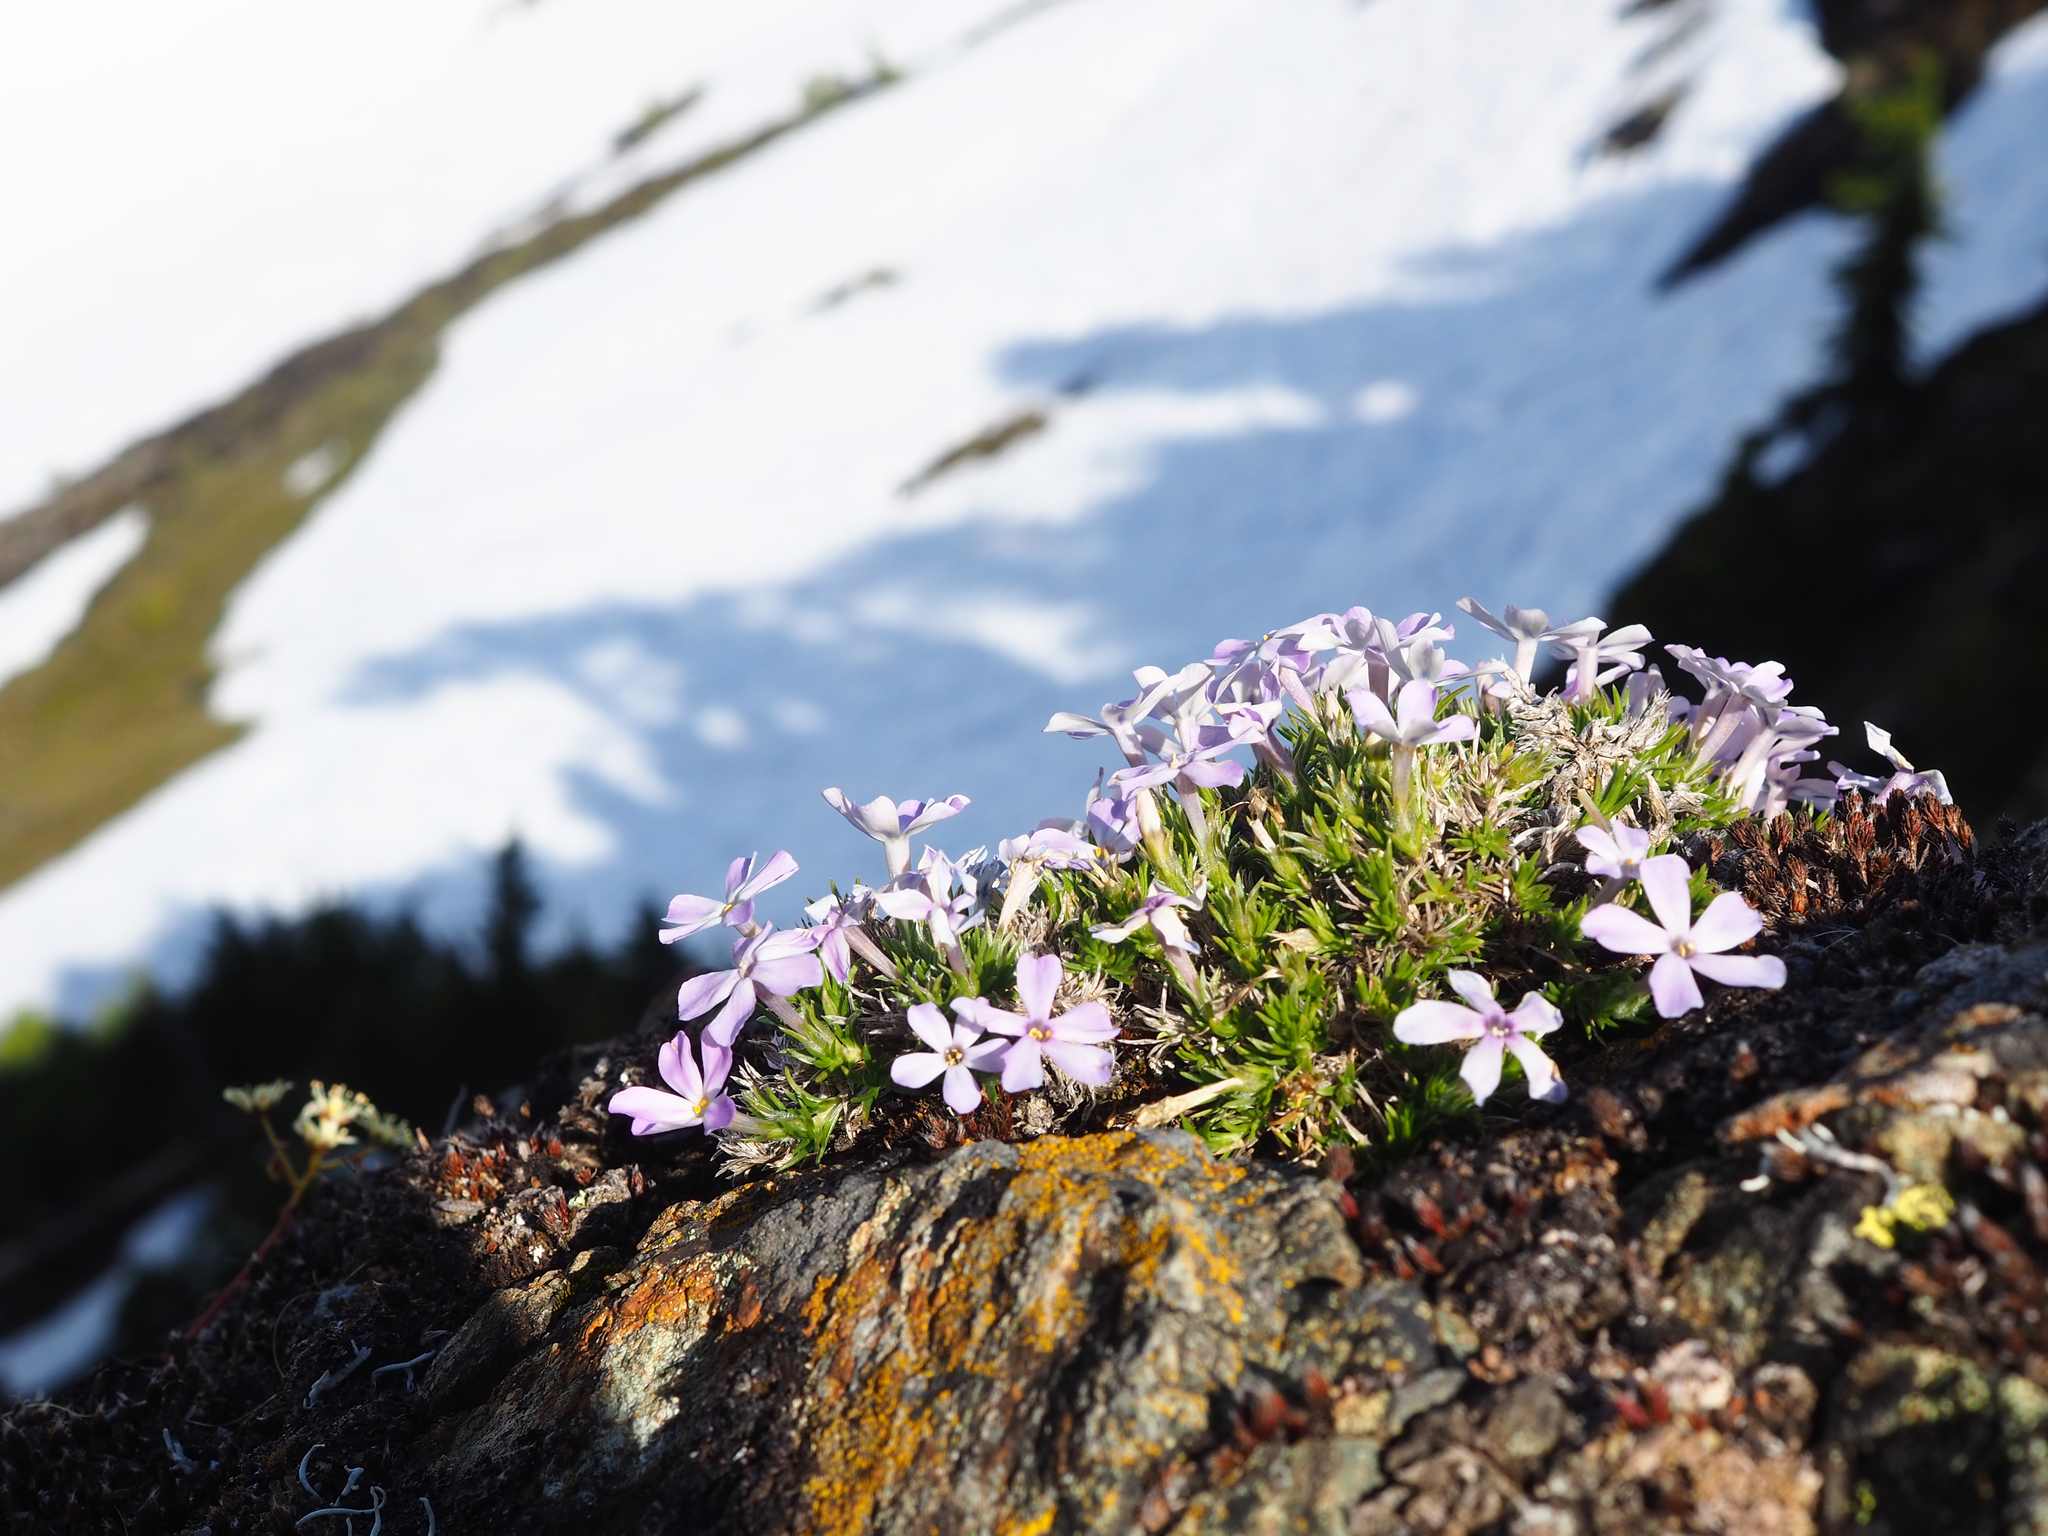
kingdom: Plantae
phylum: Tracheophyta
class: Magnoliopsida
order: Ericales
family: Polemoniaceae
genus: Phlox
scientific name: Phlox diffusa
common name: Mat phlox
